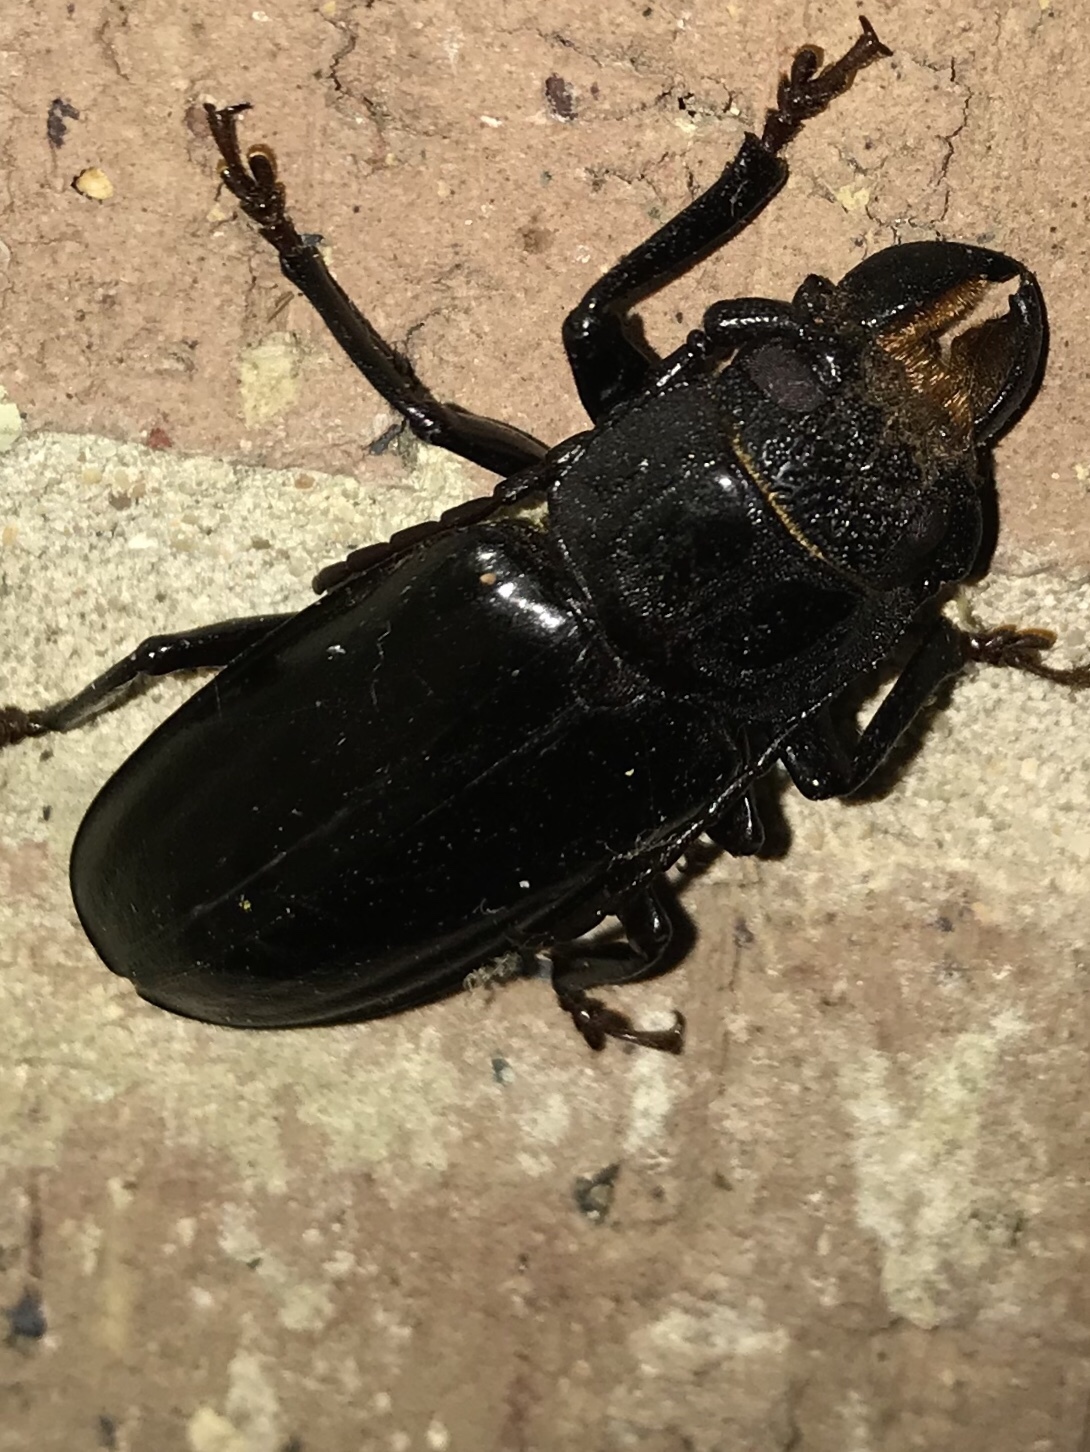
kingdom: Animalia
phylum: Arthropoda
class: Insecta
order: Coleoptera
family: Cerambycidae
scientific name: Cerambycidae
